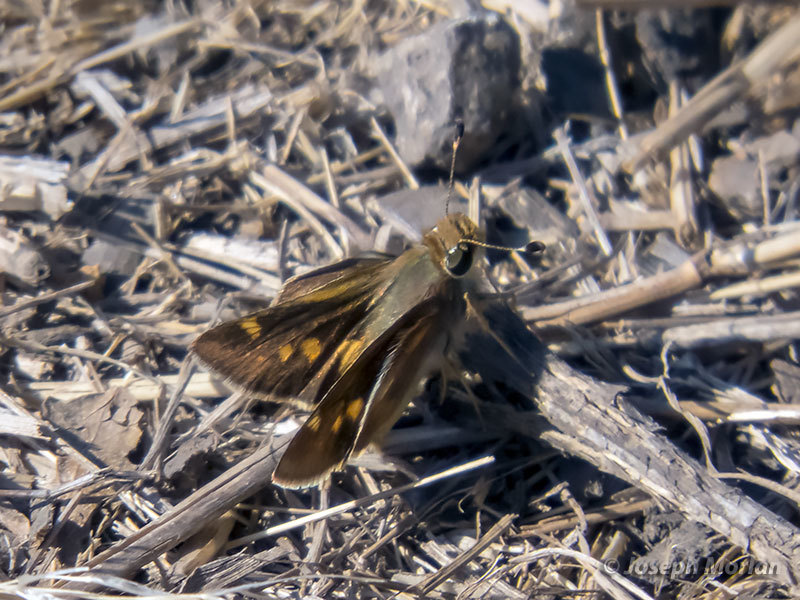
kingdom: Animalia
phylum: Arthropoda
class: Insecta
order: Lepidoptera
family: Hesperiidae
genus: Lon
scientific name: Lon melane
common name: Umber skipper
